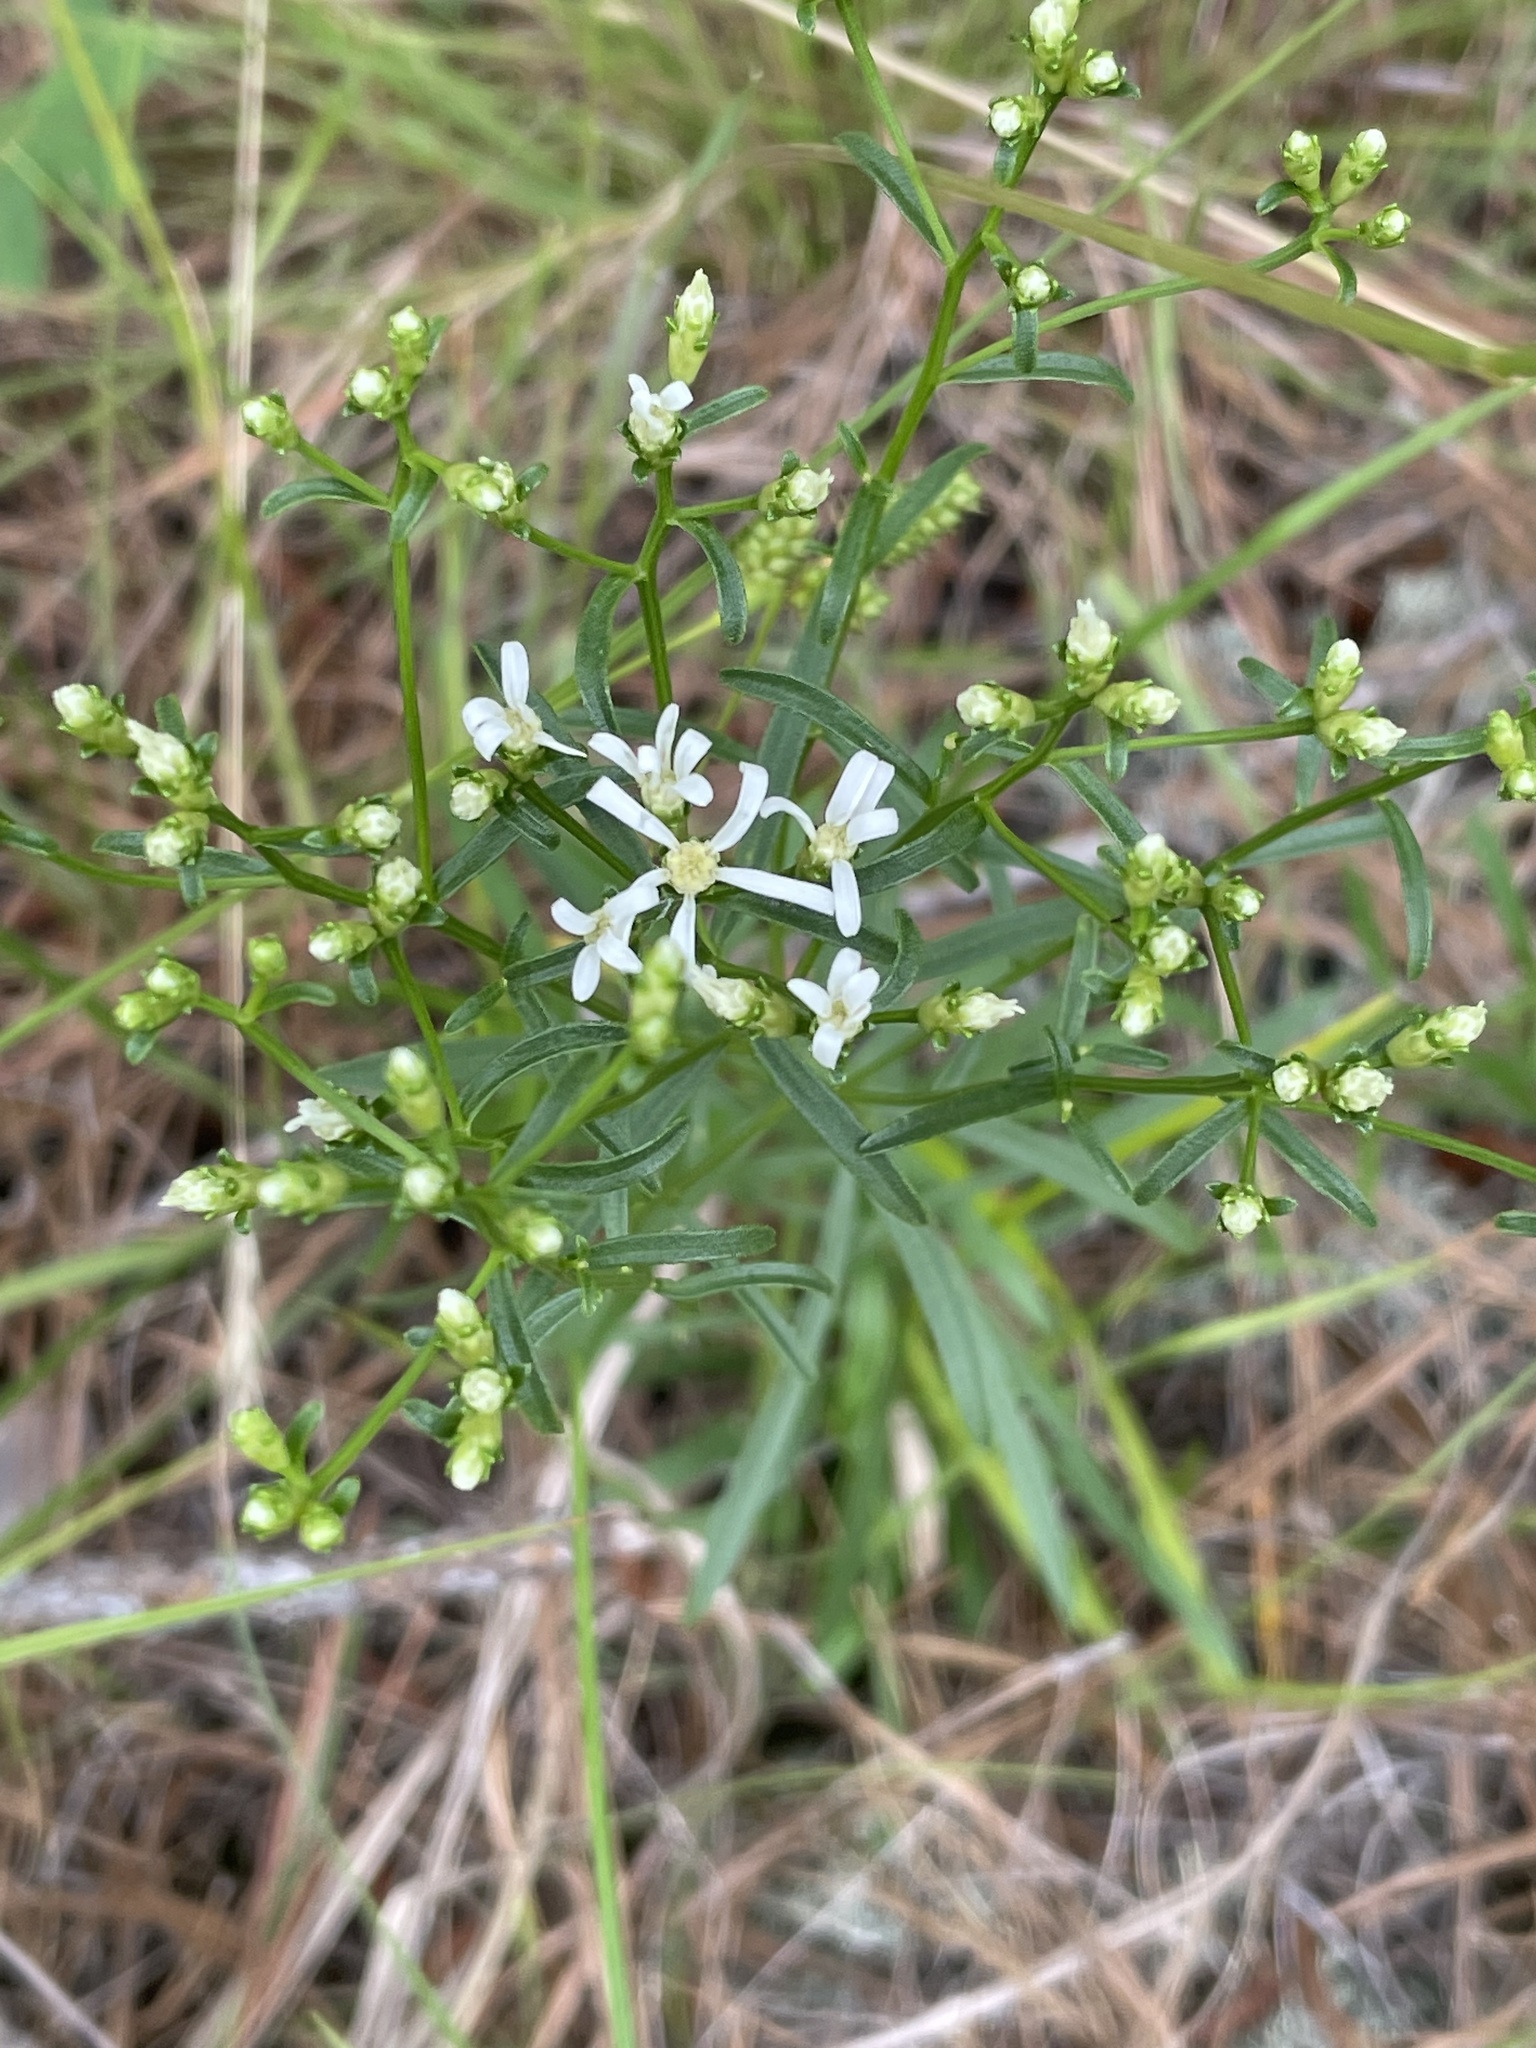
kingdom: Plantae
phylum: Tracheophyta
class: Magnoliopsida
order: Asterales
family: Asteraceae
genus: Sericocarpus
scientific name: Sericocarpus linifolius
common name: Narrow-leaf aster
